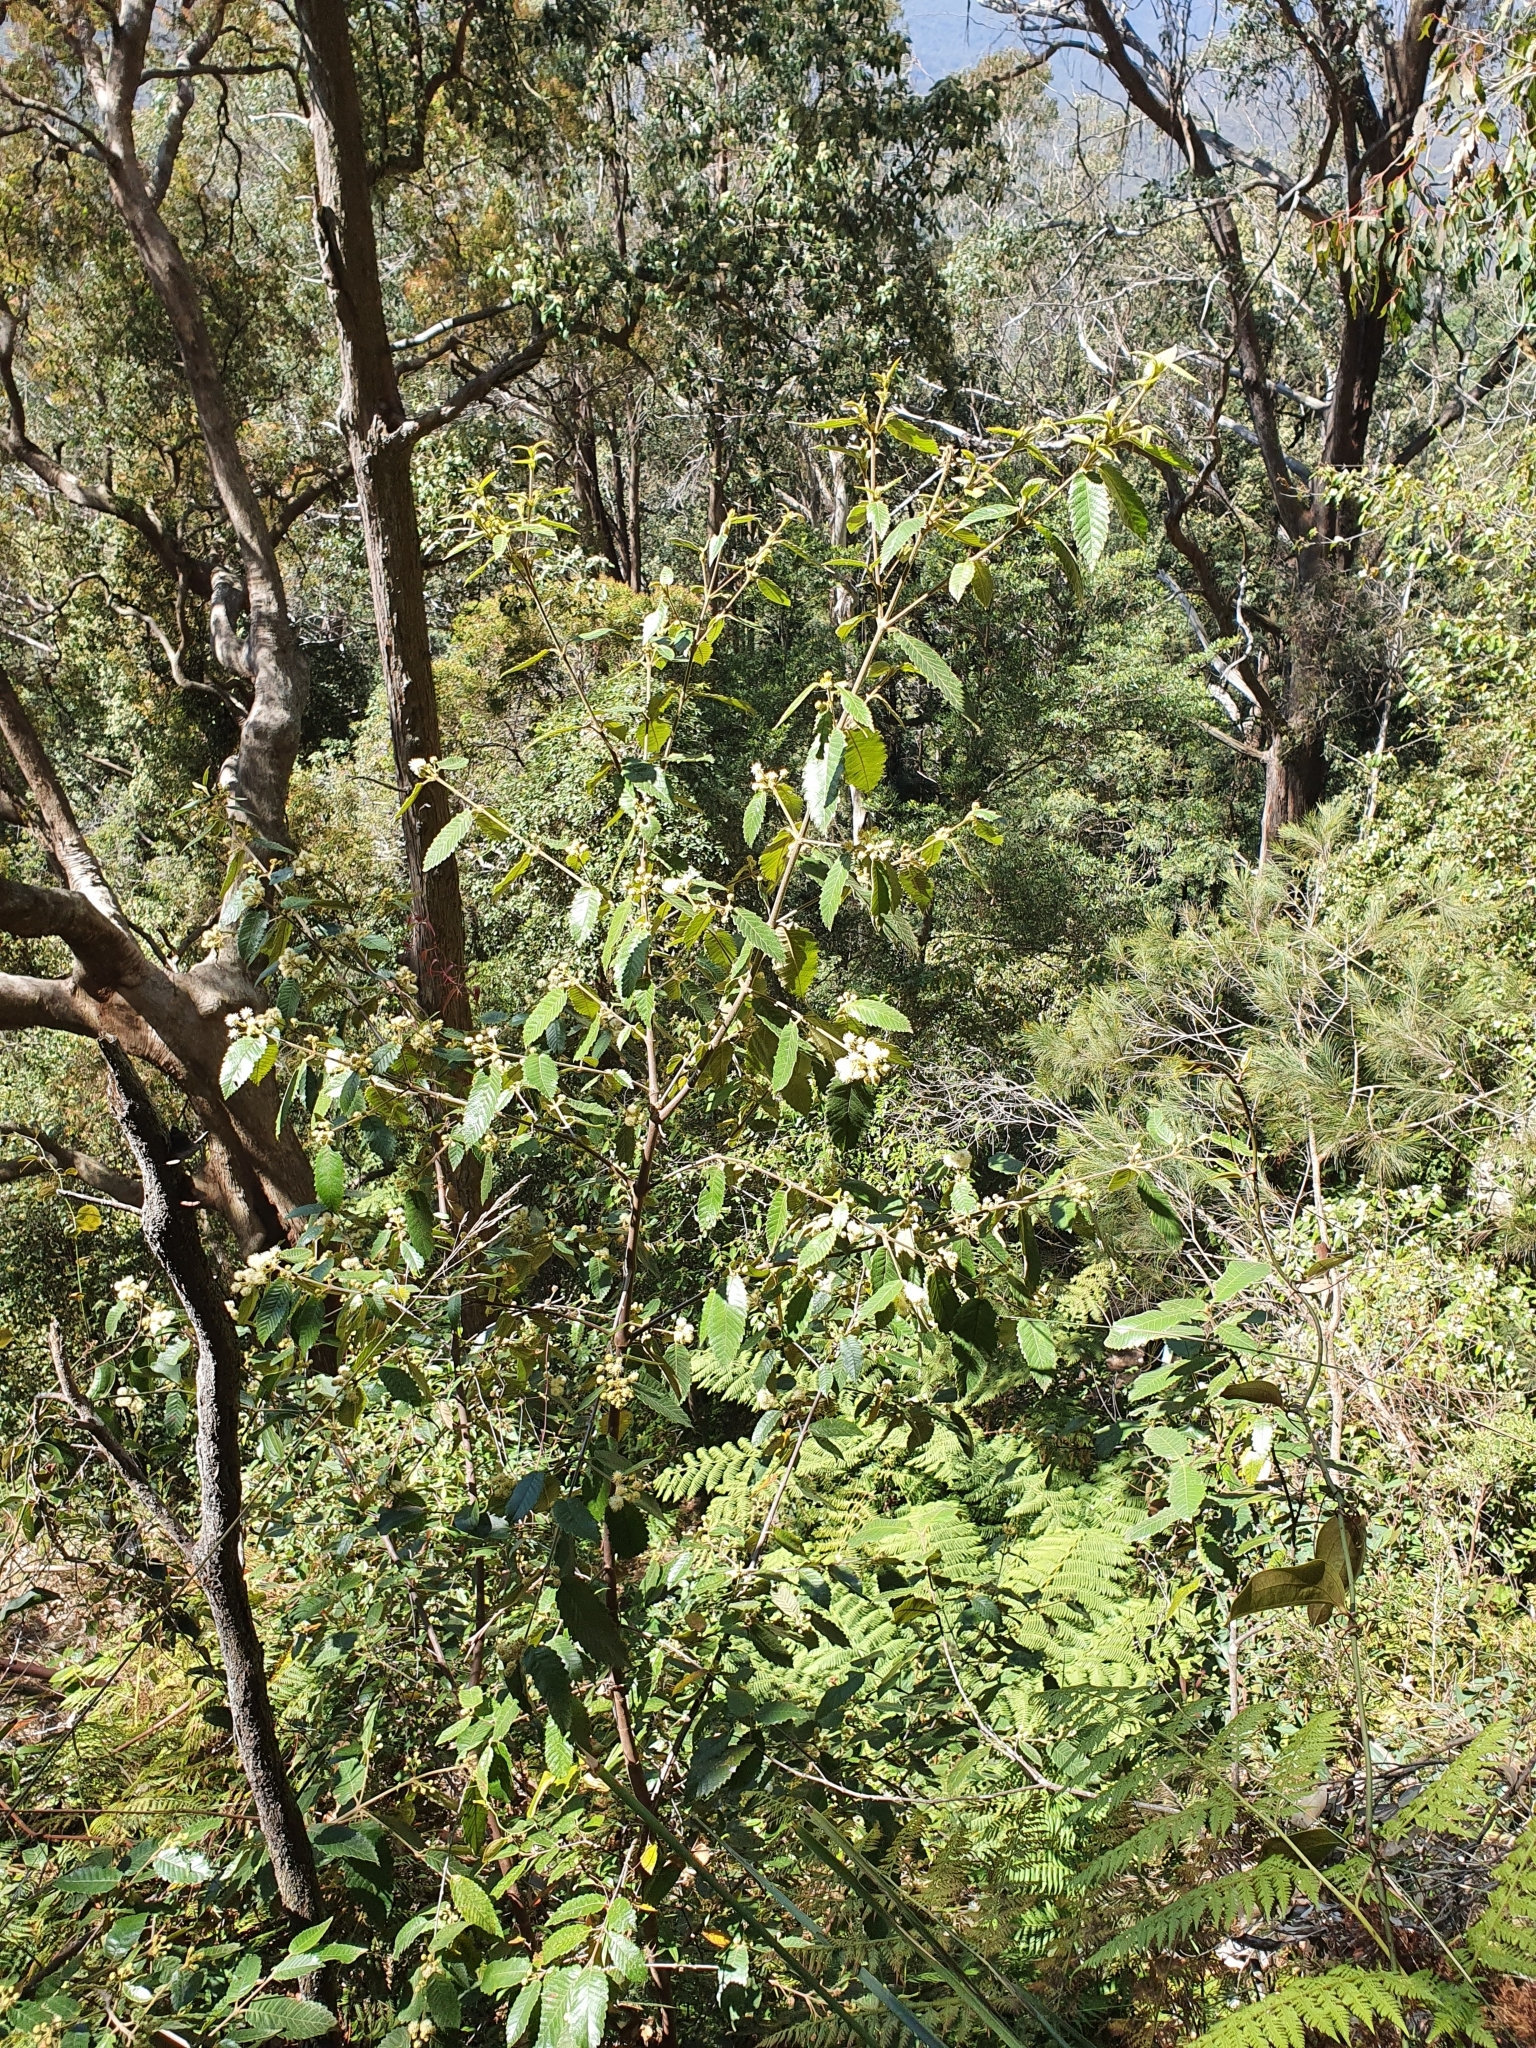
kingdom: Plantae
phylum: Tracheophyta
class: Magnoliopsida
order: Oxalidales
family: Cunoniaceae
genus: Callicoma
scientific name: Callicoma serratifolia
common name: Black wattle
